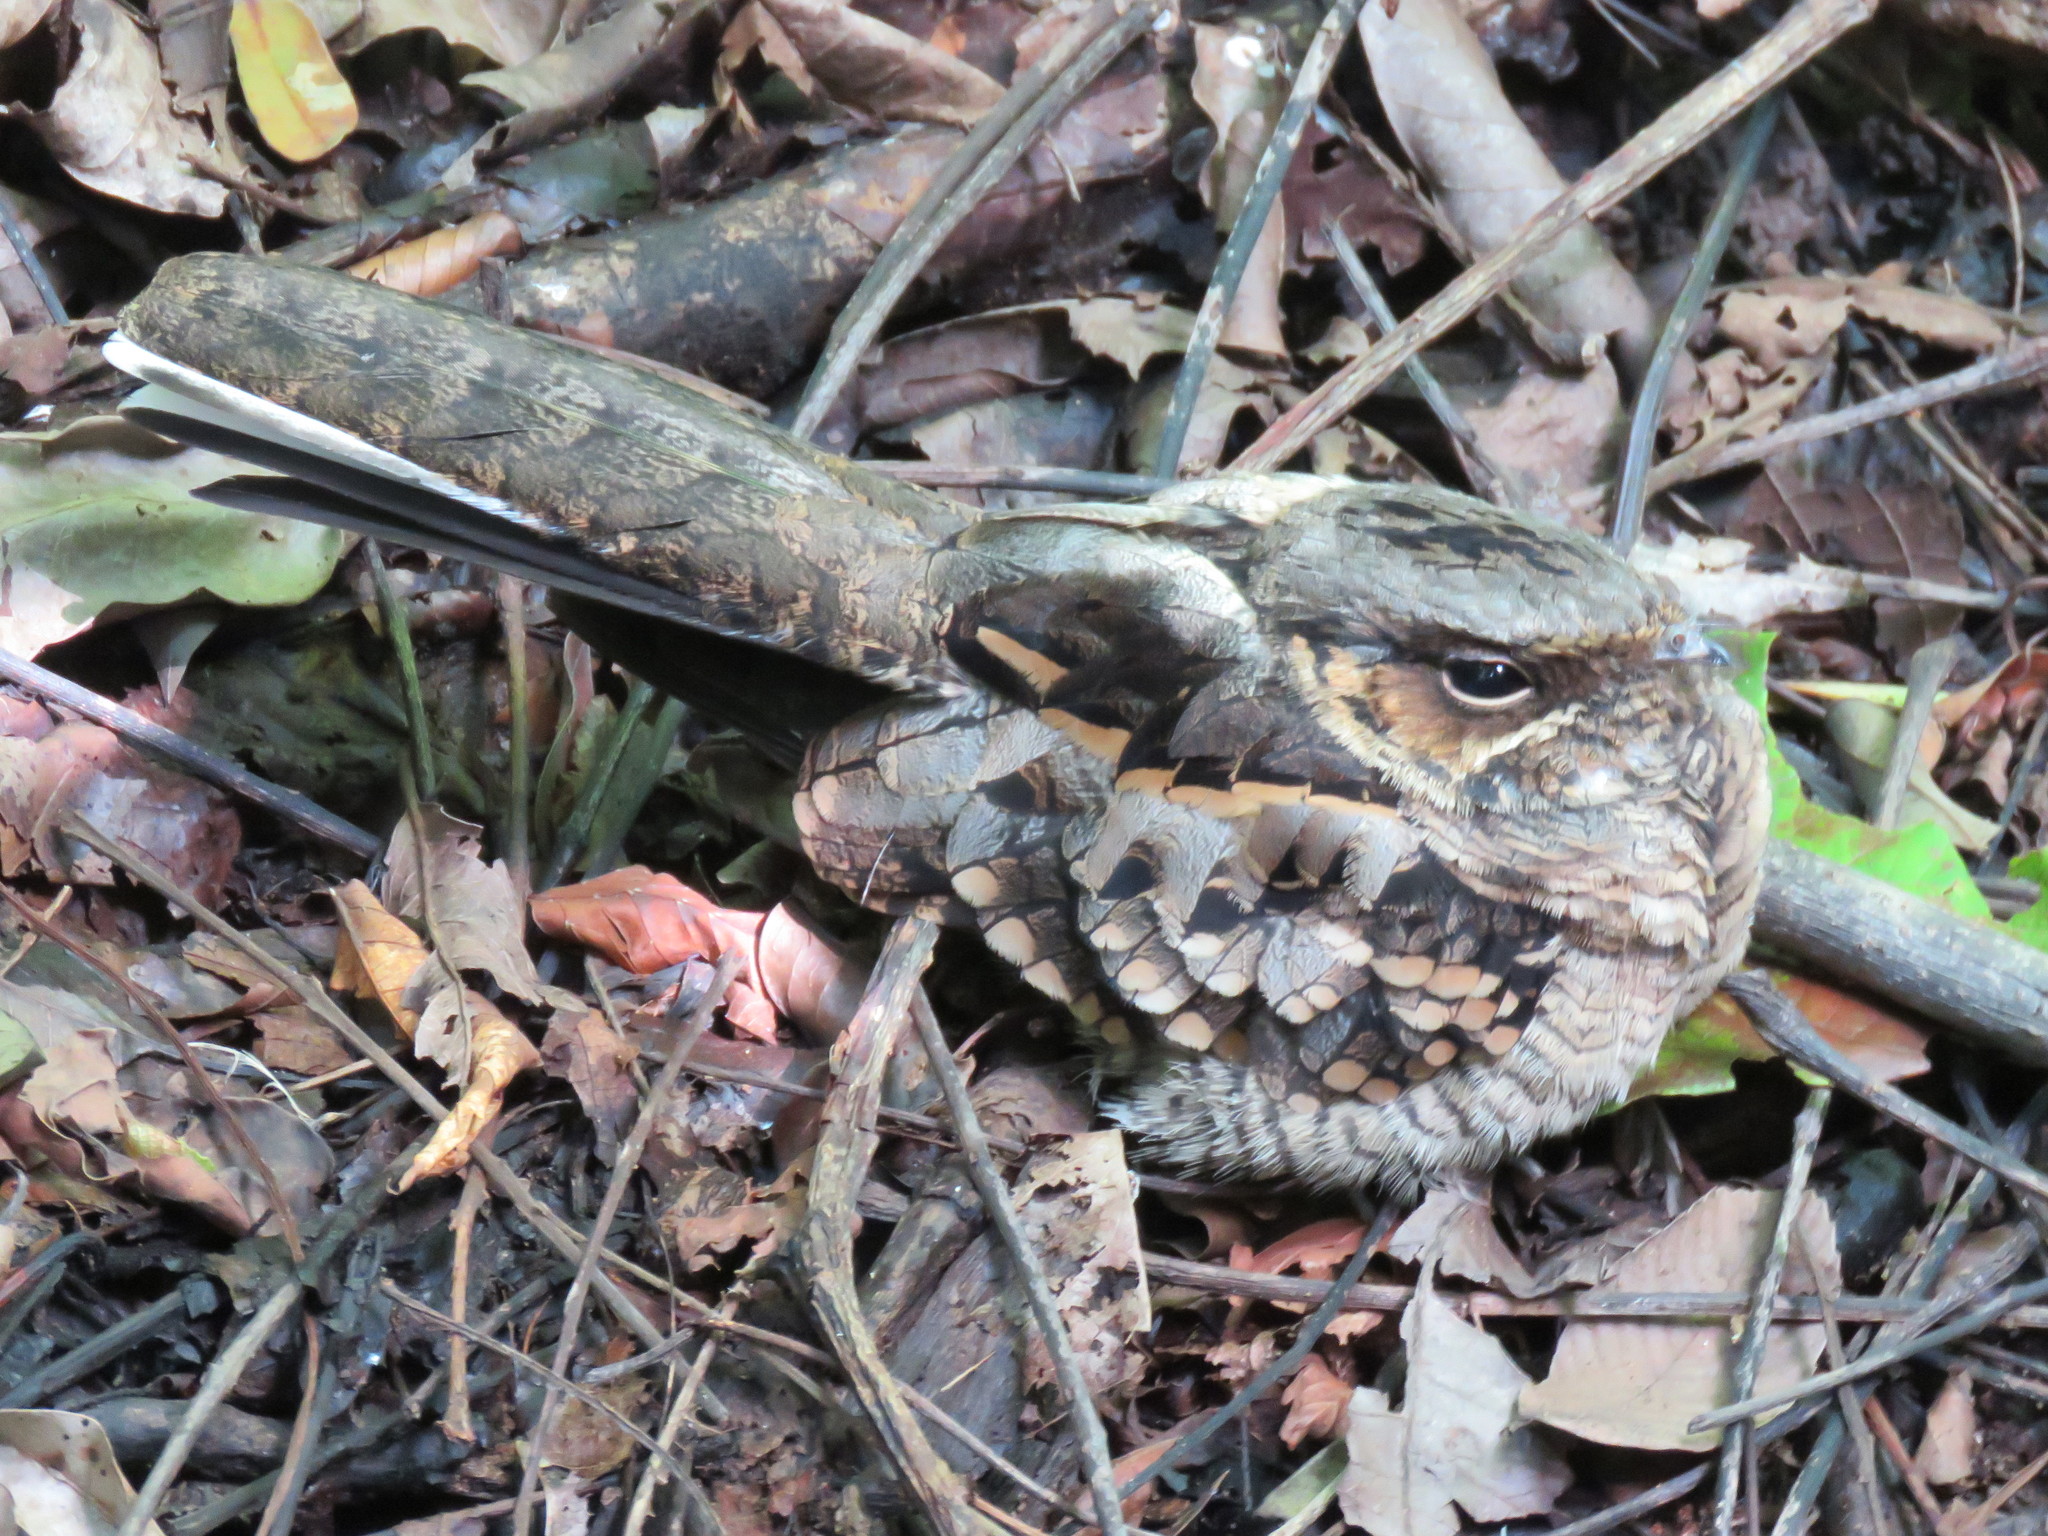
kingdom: Animalia
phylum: Chordata
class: Aves
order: Caprimulgiformes
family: Caprimulgidae
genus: Nyctidromus
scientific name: Nyctidromus albicollis
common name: Pauraque
